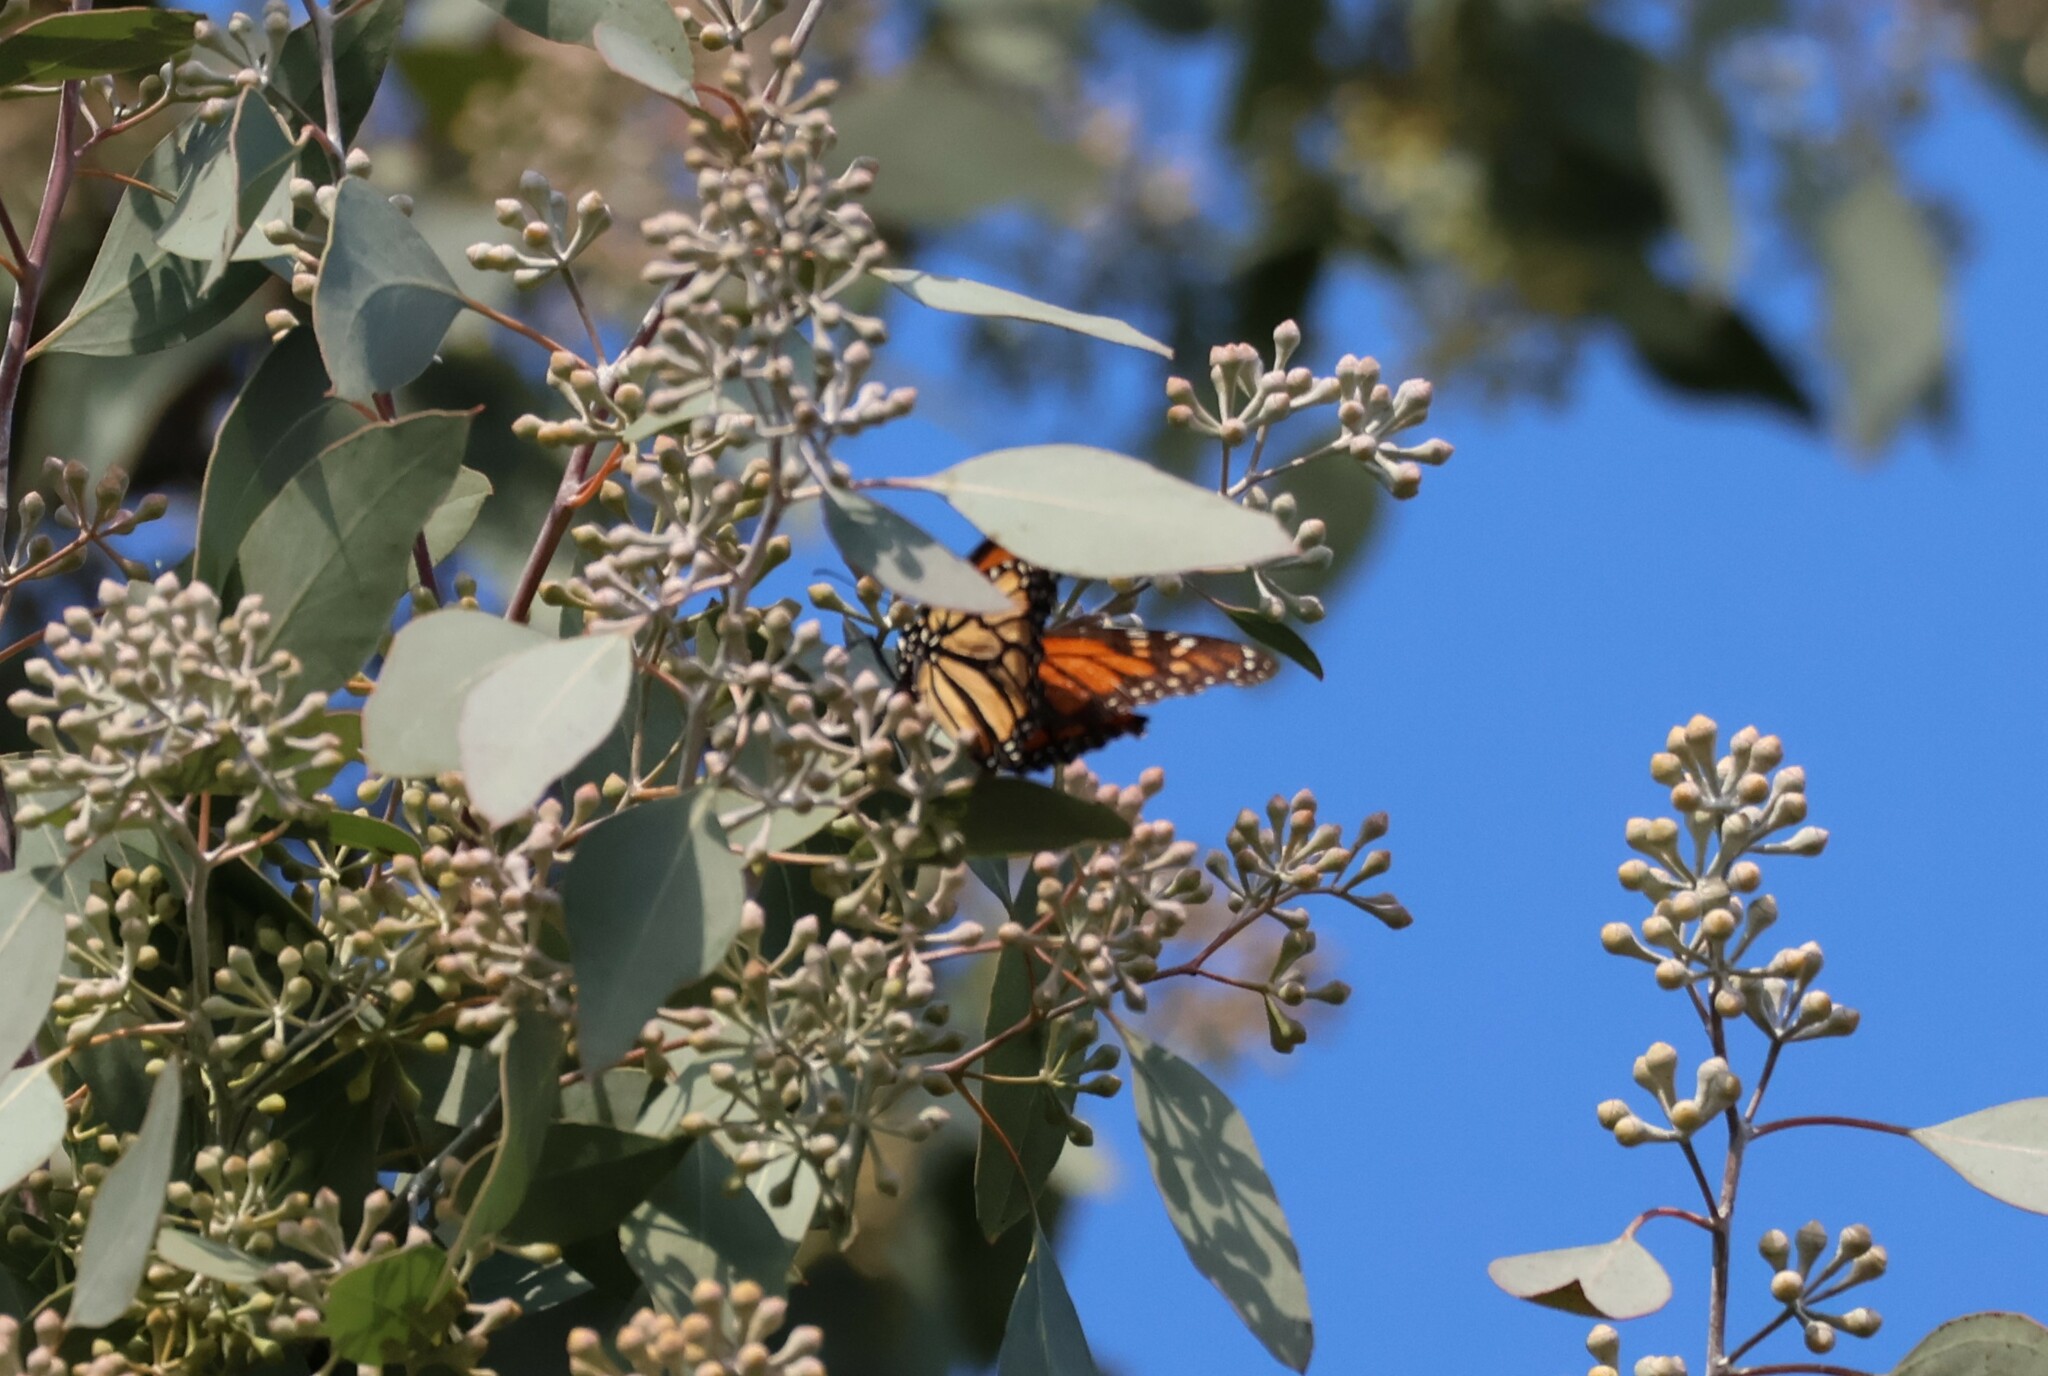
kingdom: Animalia
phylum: Arthropoda
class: Insecta
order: Lepidoptera
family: Nymphalidae
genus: Danaus
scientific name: Danaus plexippus
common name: Monarch
